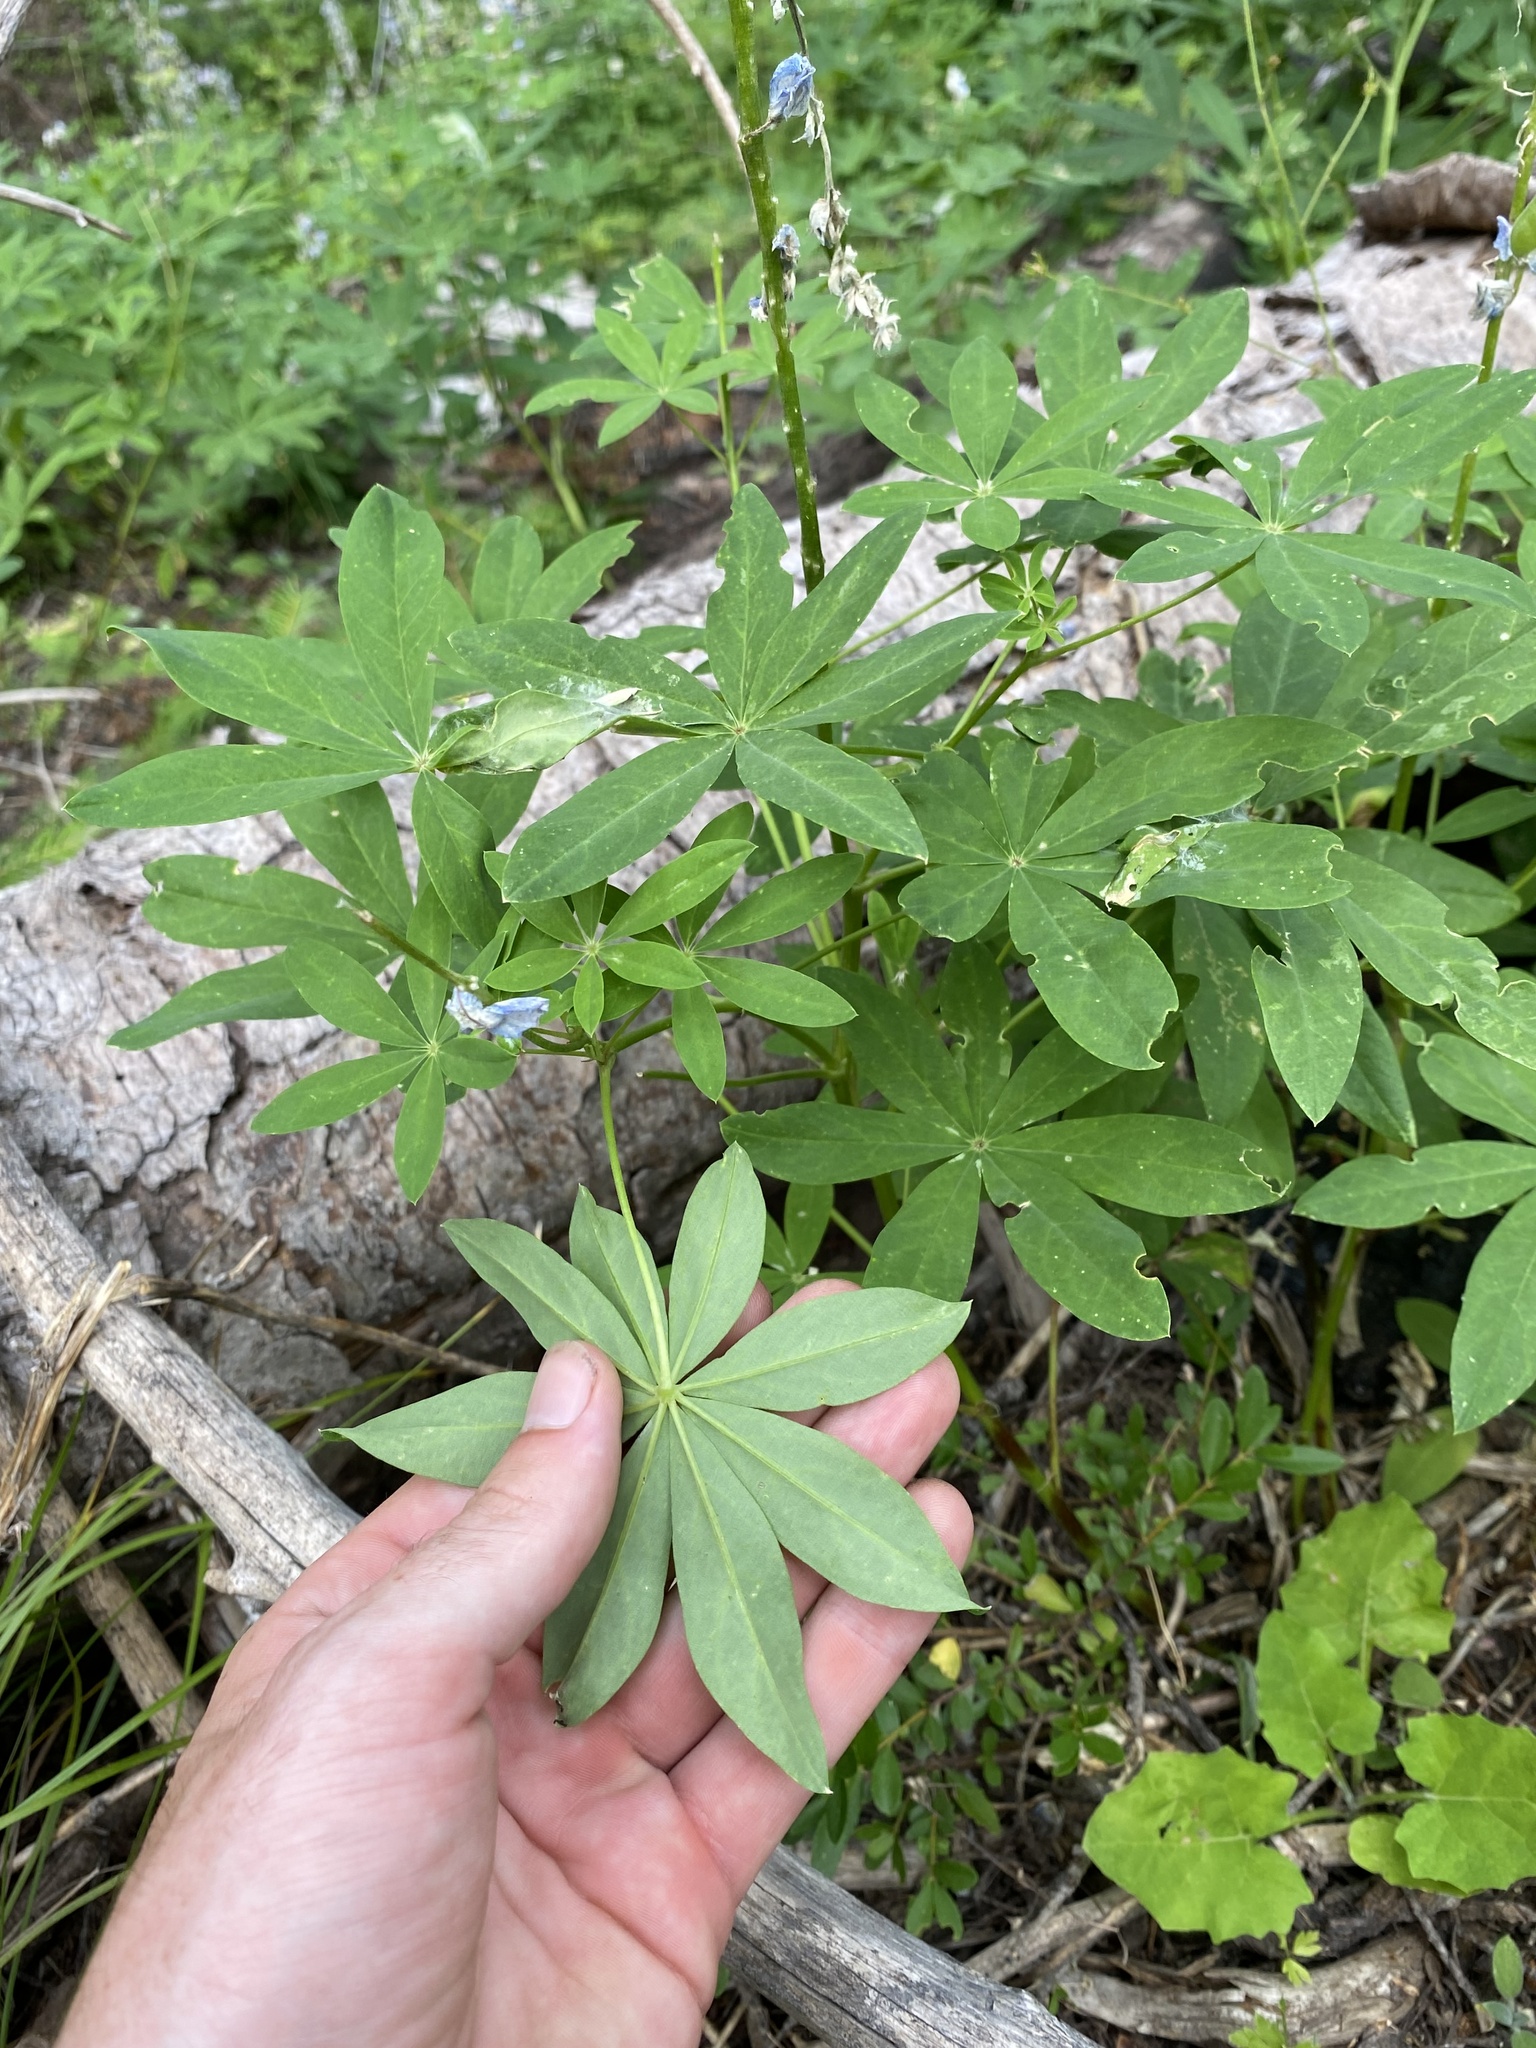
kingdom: Plantae
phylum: Tracheophyta
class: Magnoliopsida
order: Fabales
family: Fabaceae
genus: Lupinus
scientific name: Lupinus latifolius
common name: Broad-leaved lupine
